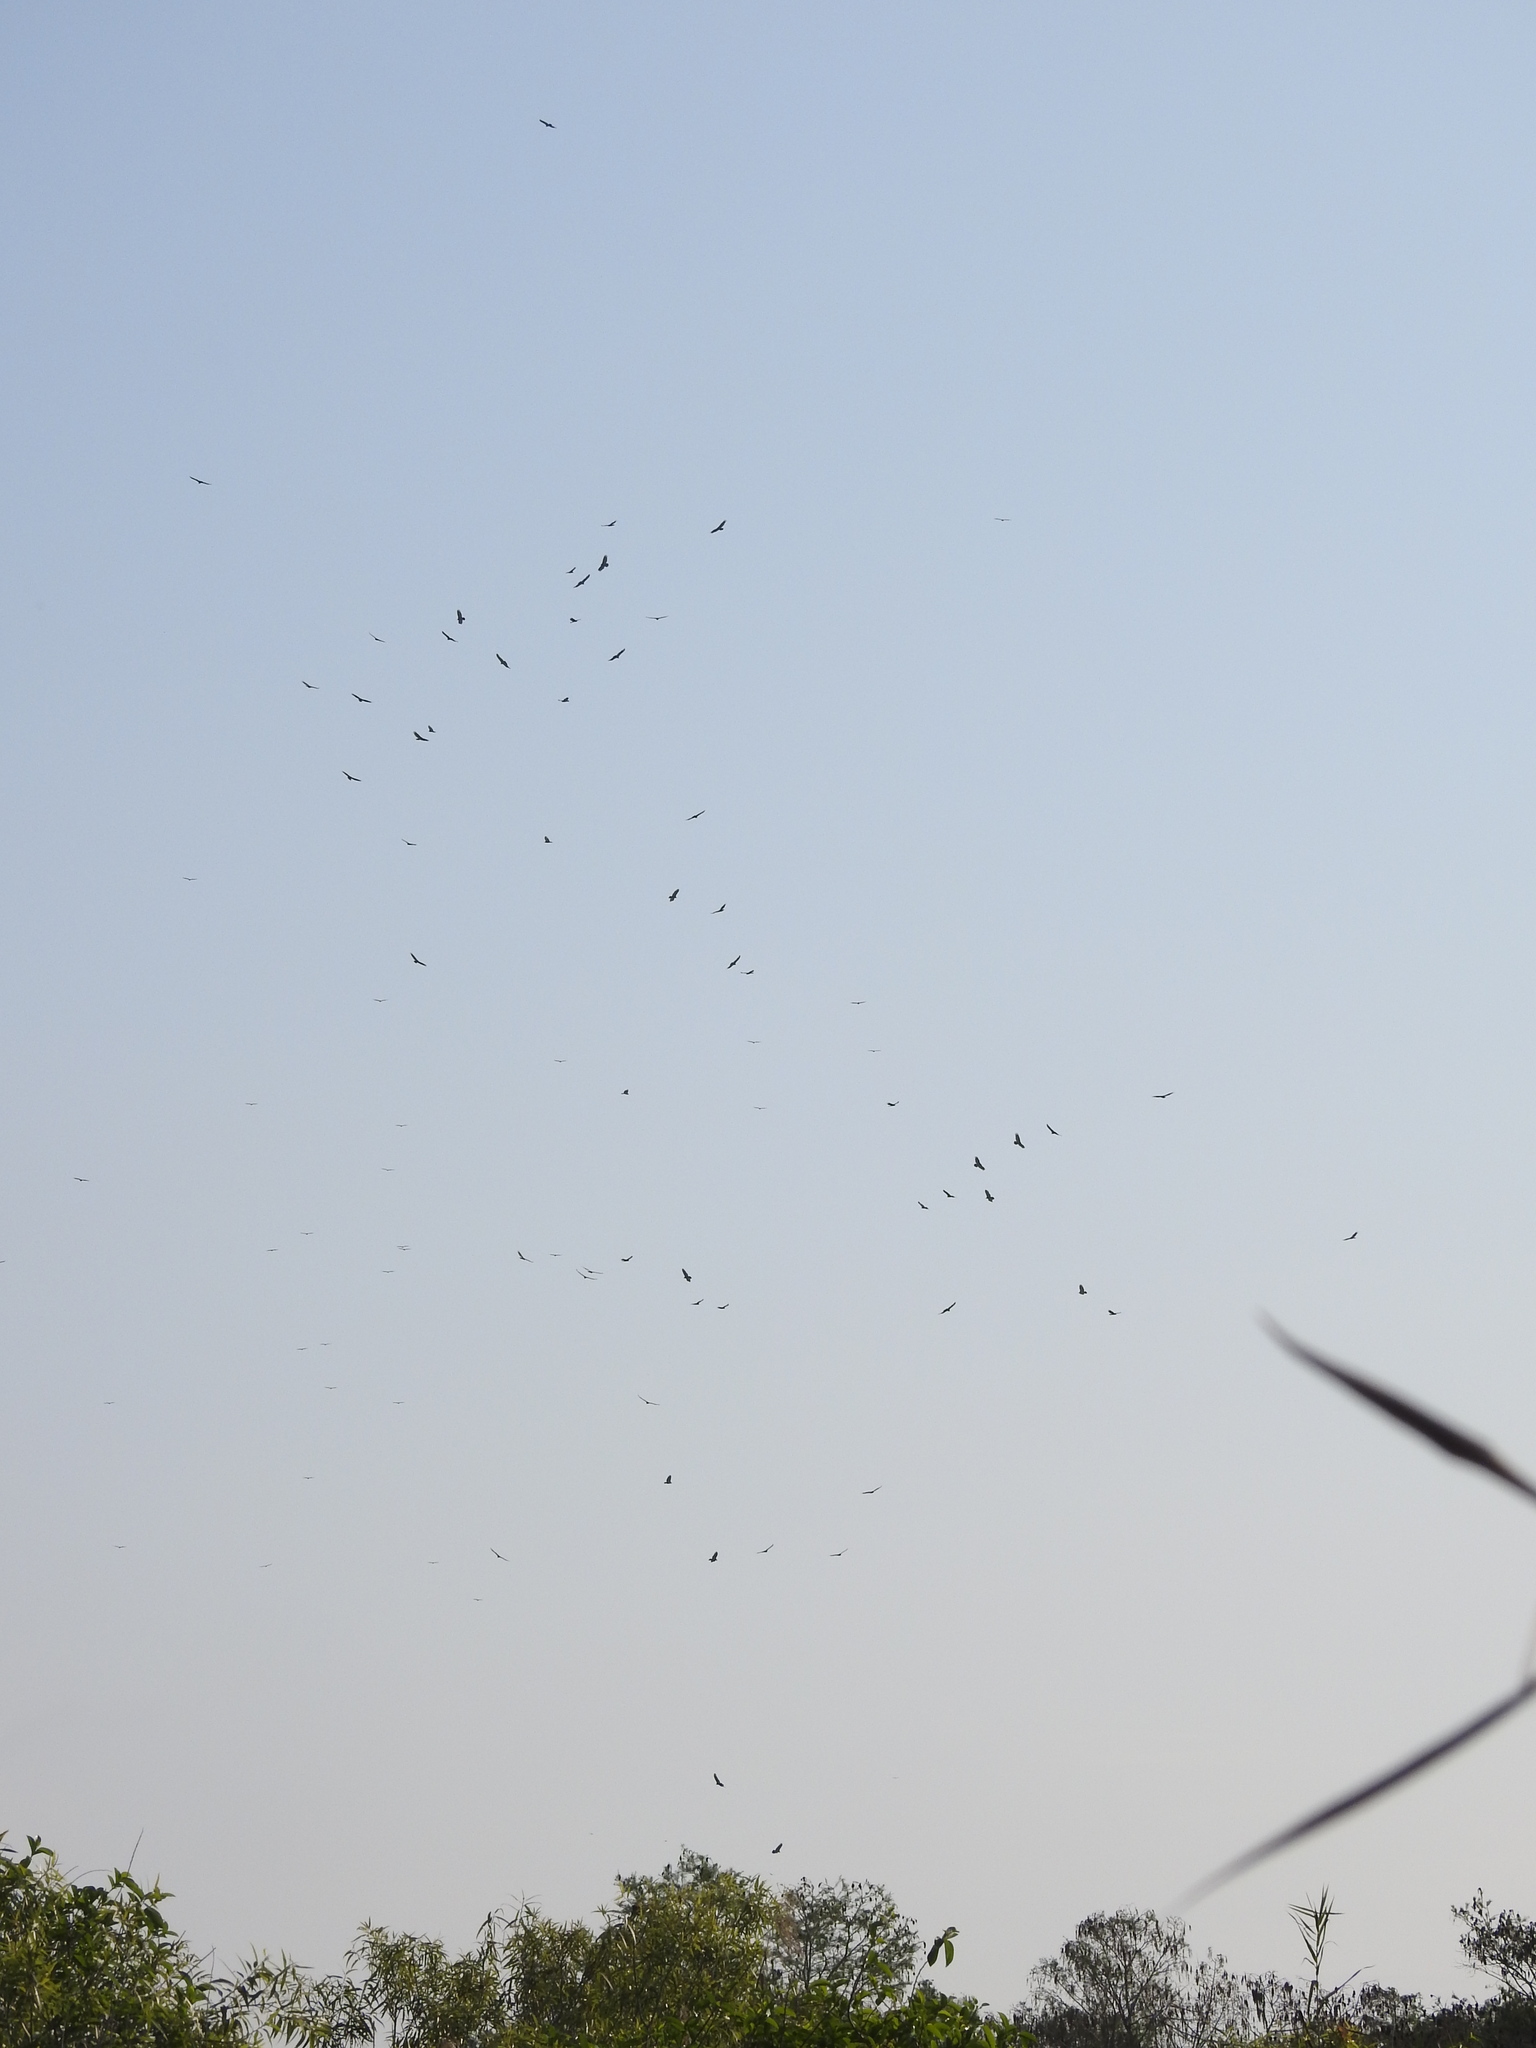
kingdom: Animalia
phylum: Chordata
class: Aves
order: Accipitriformes
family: Cathartidae
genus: Cathartes
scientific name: Cathartes aura
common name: Turkey vulture
